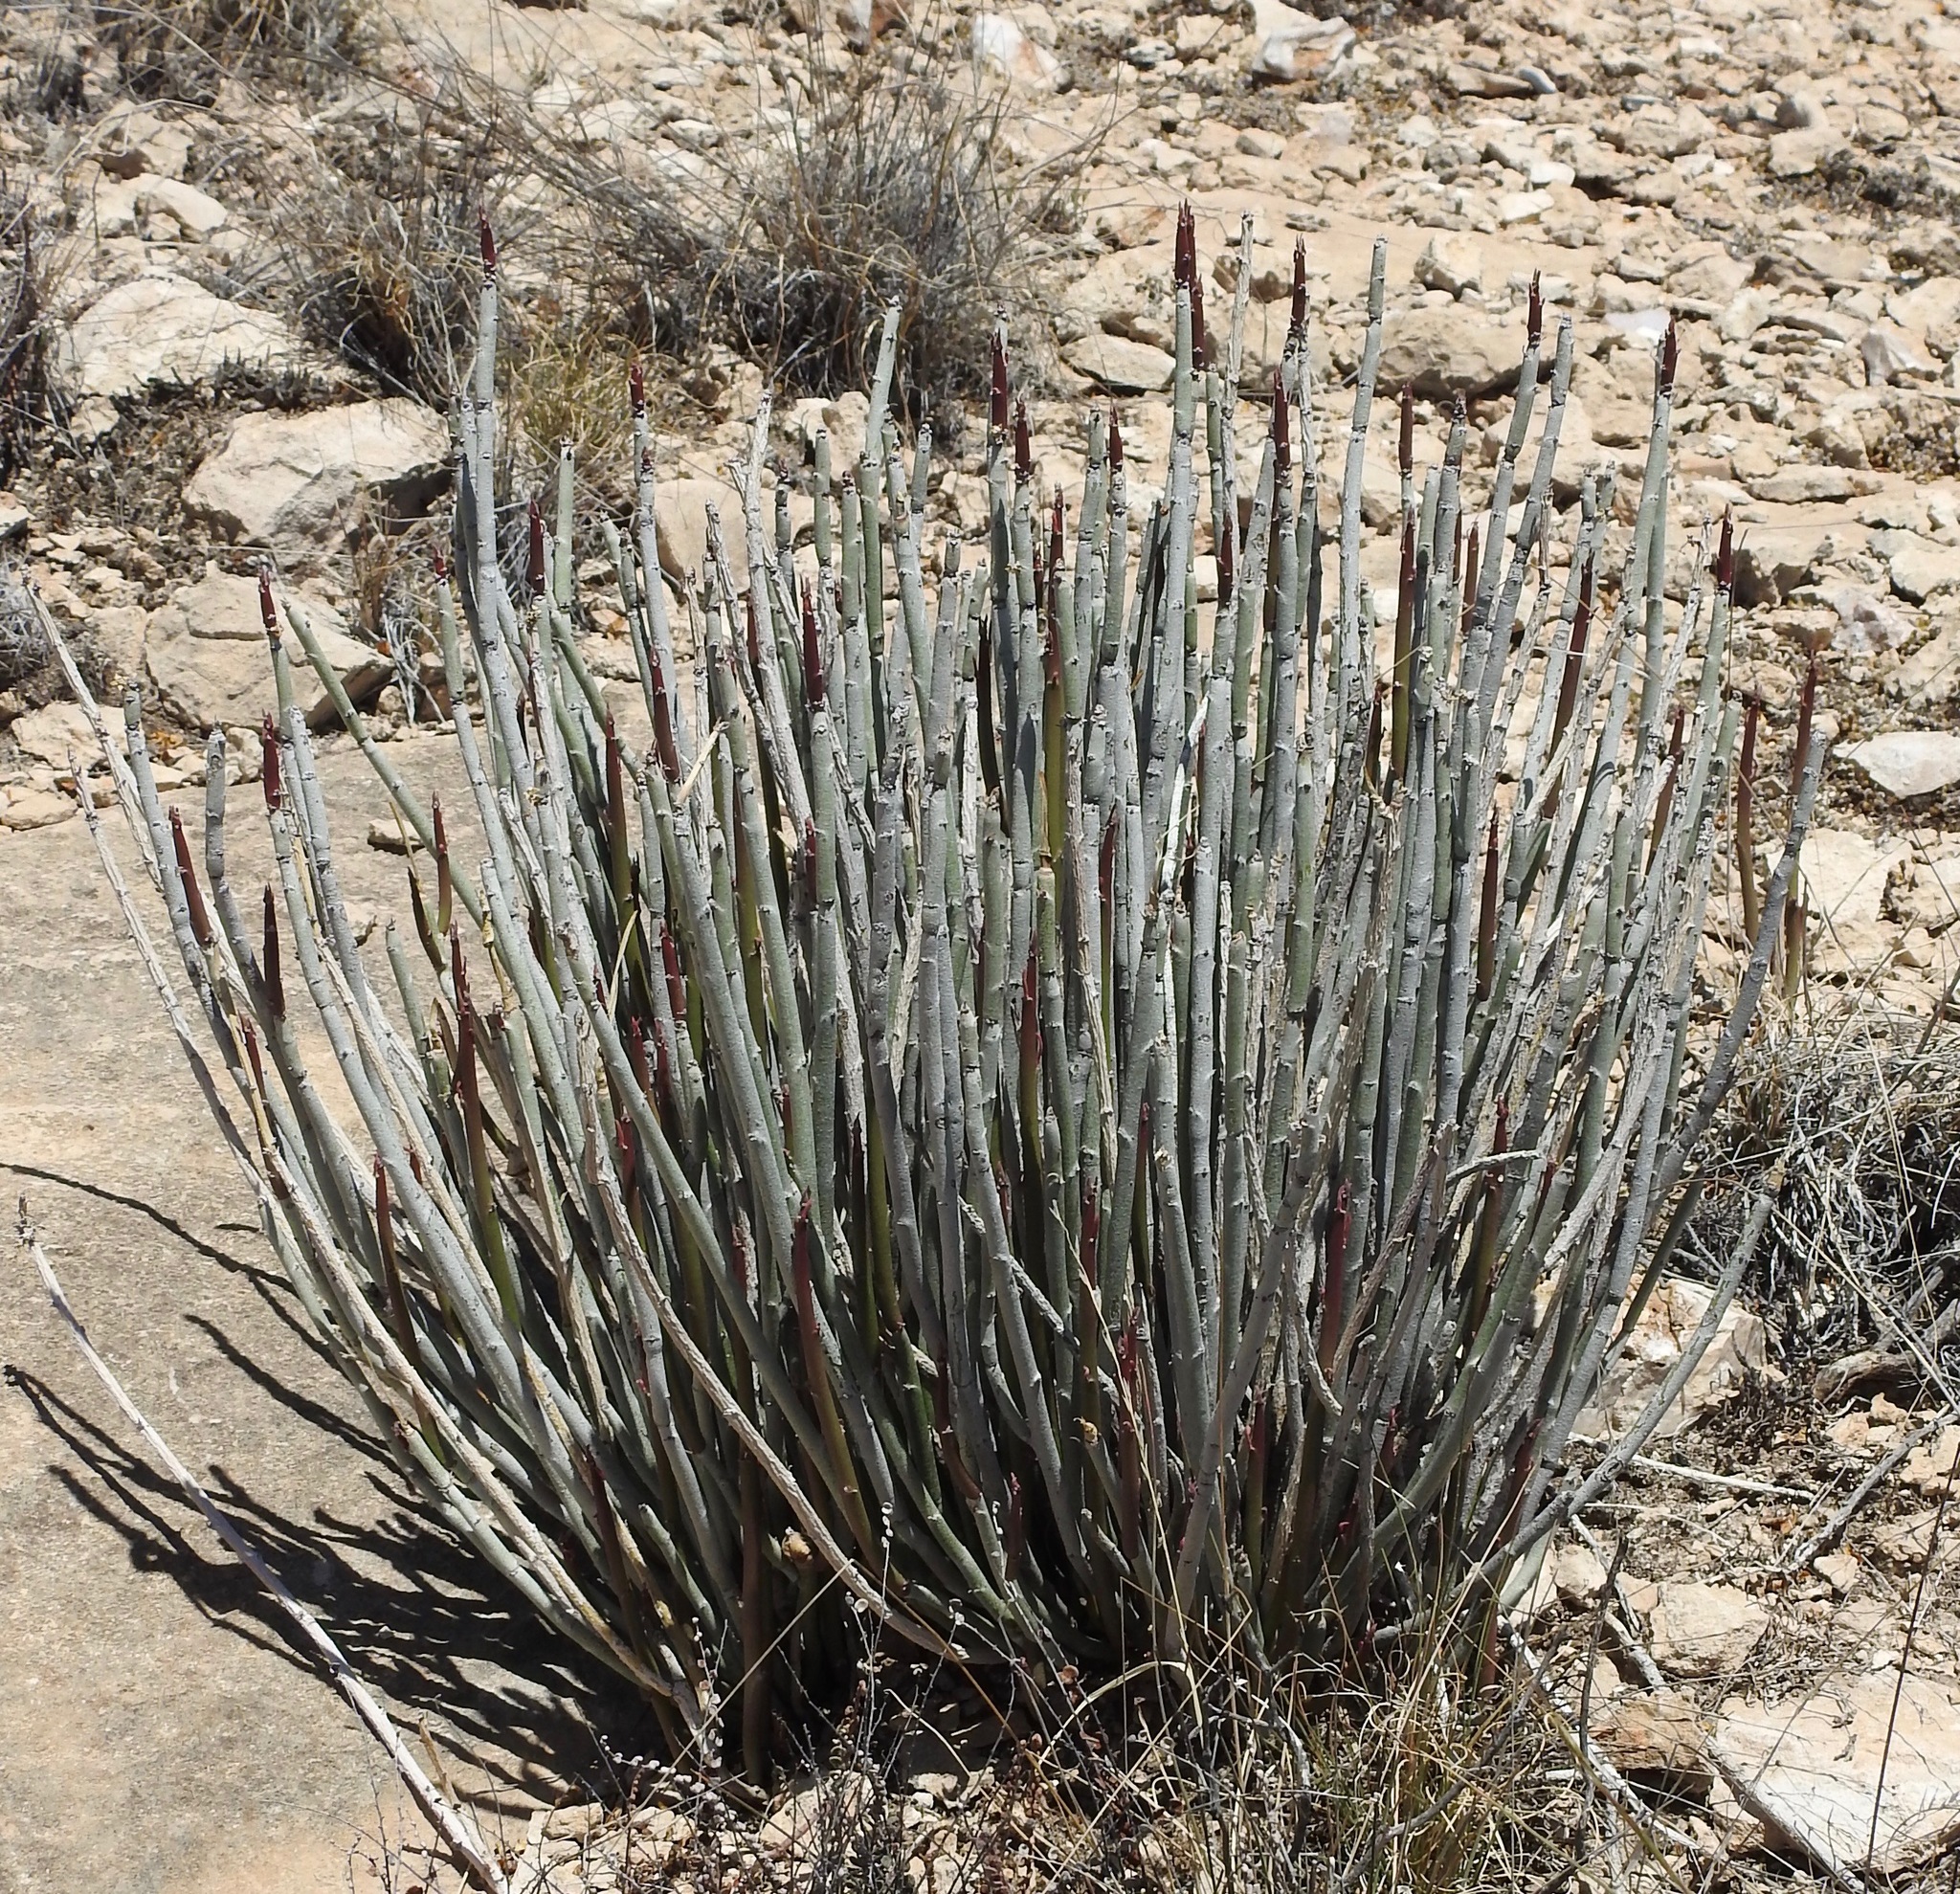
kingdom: Plantae
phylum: Tracheophyta
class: Magnoliopsida
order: Malpighiales
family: Euphorbiaceae
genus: Euphorbia
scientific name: Euphorbia antisyphilitica
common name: Candelilla
